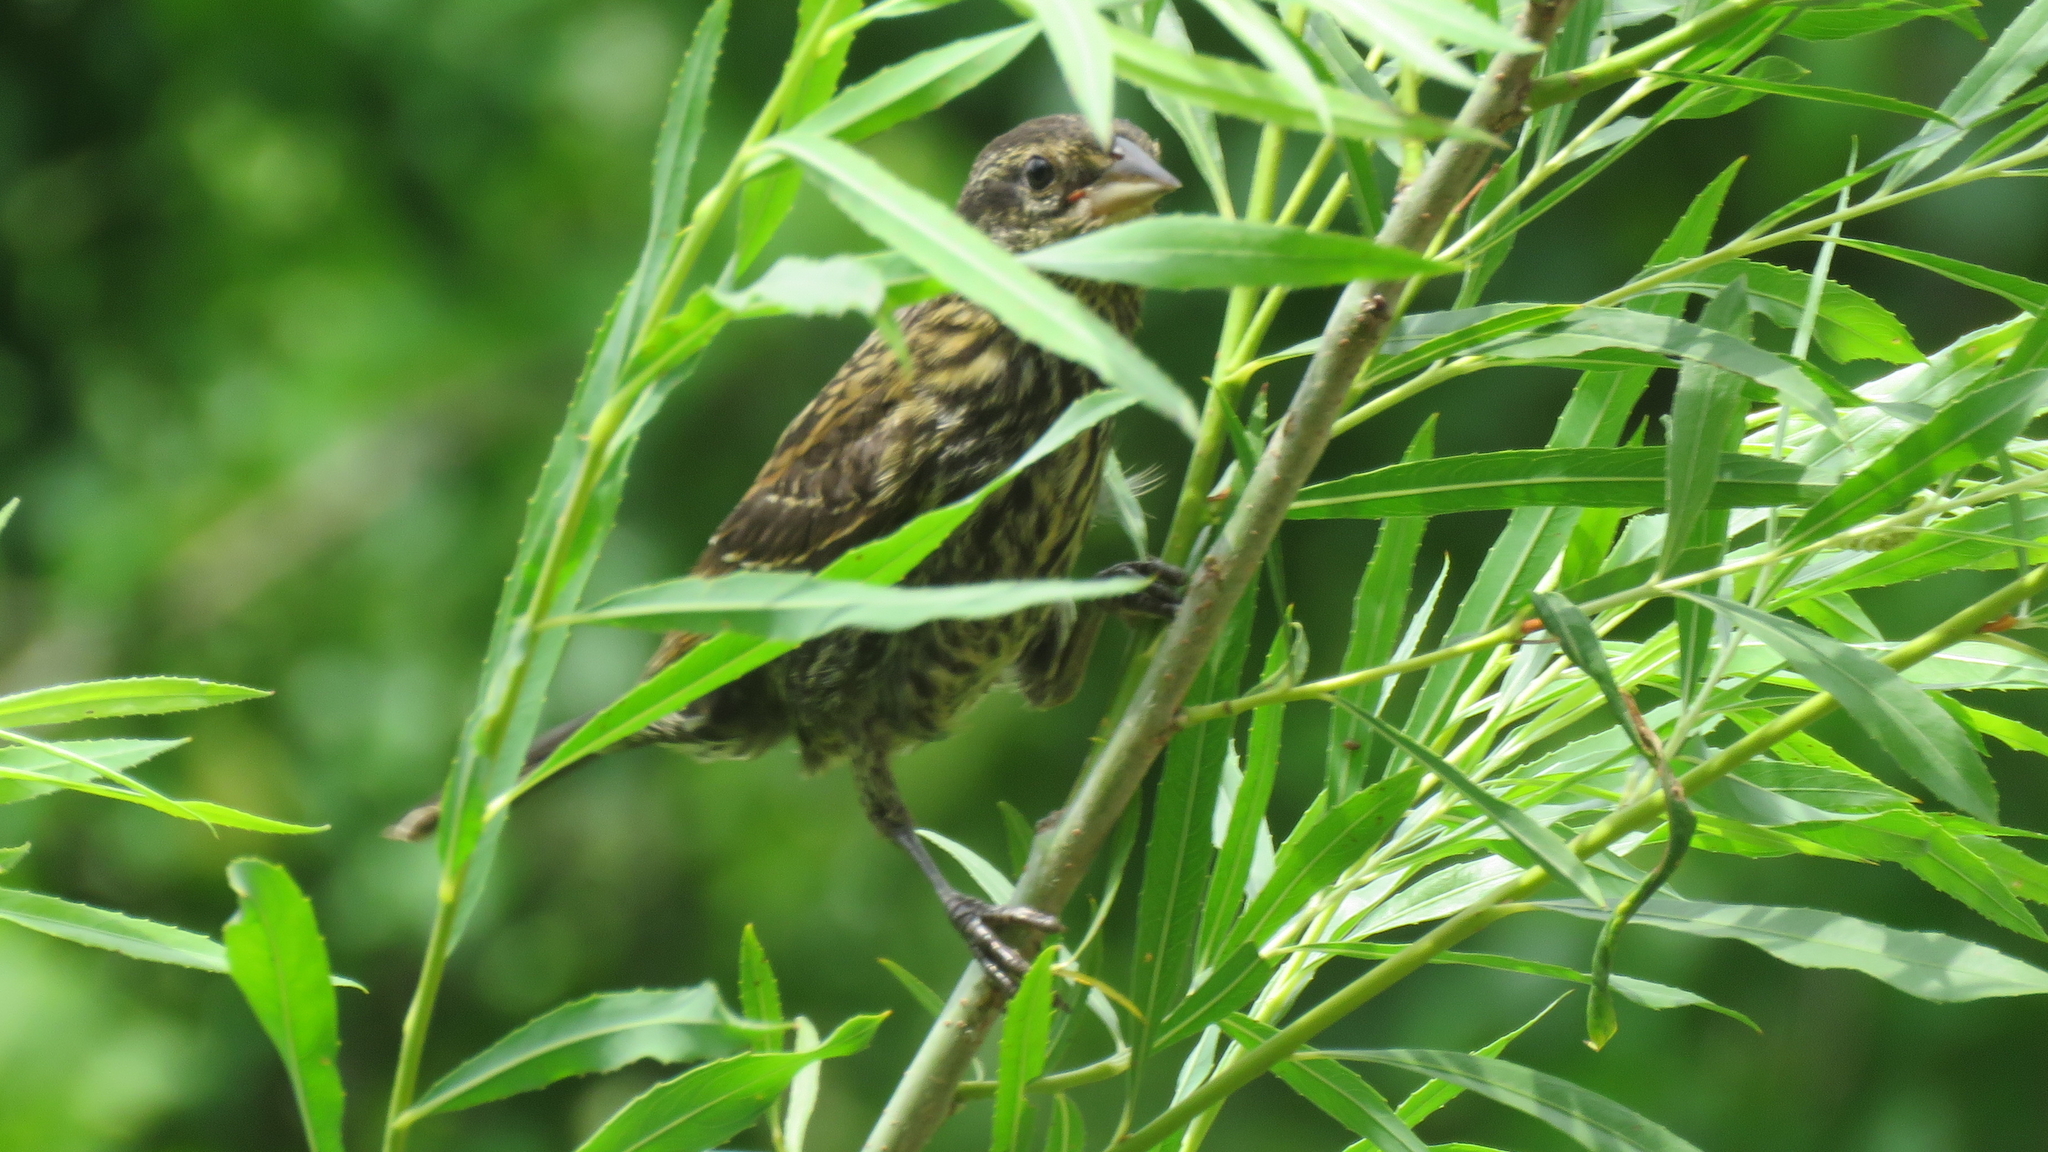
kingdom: Animalia
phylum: Chordata
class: Aves
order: Passeriformes
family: Icteridae
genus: Agelaius
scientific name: Agelaius phoeniceus
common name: Red-winged blackbird
